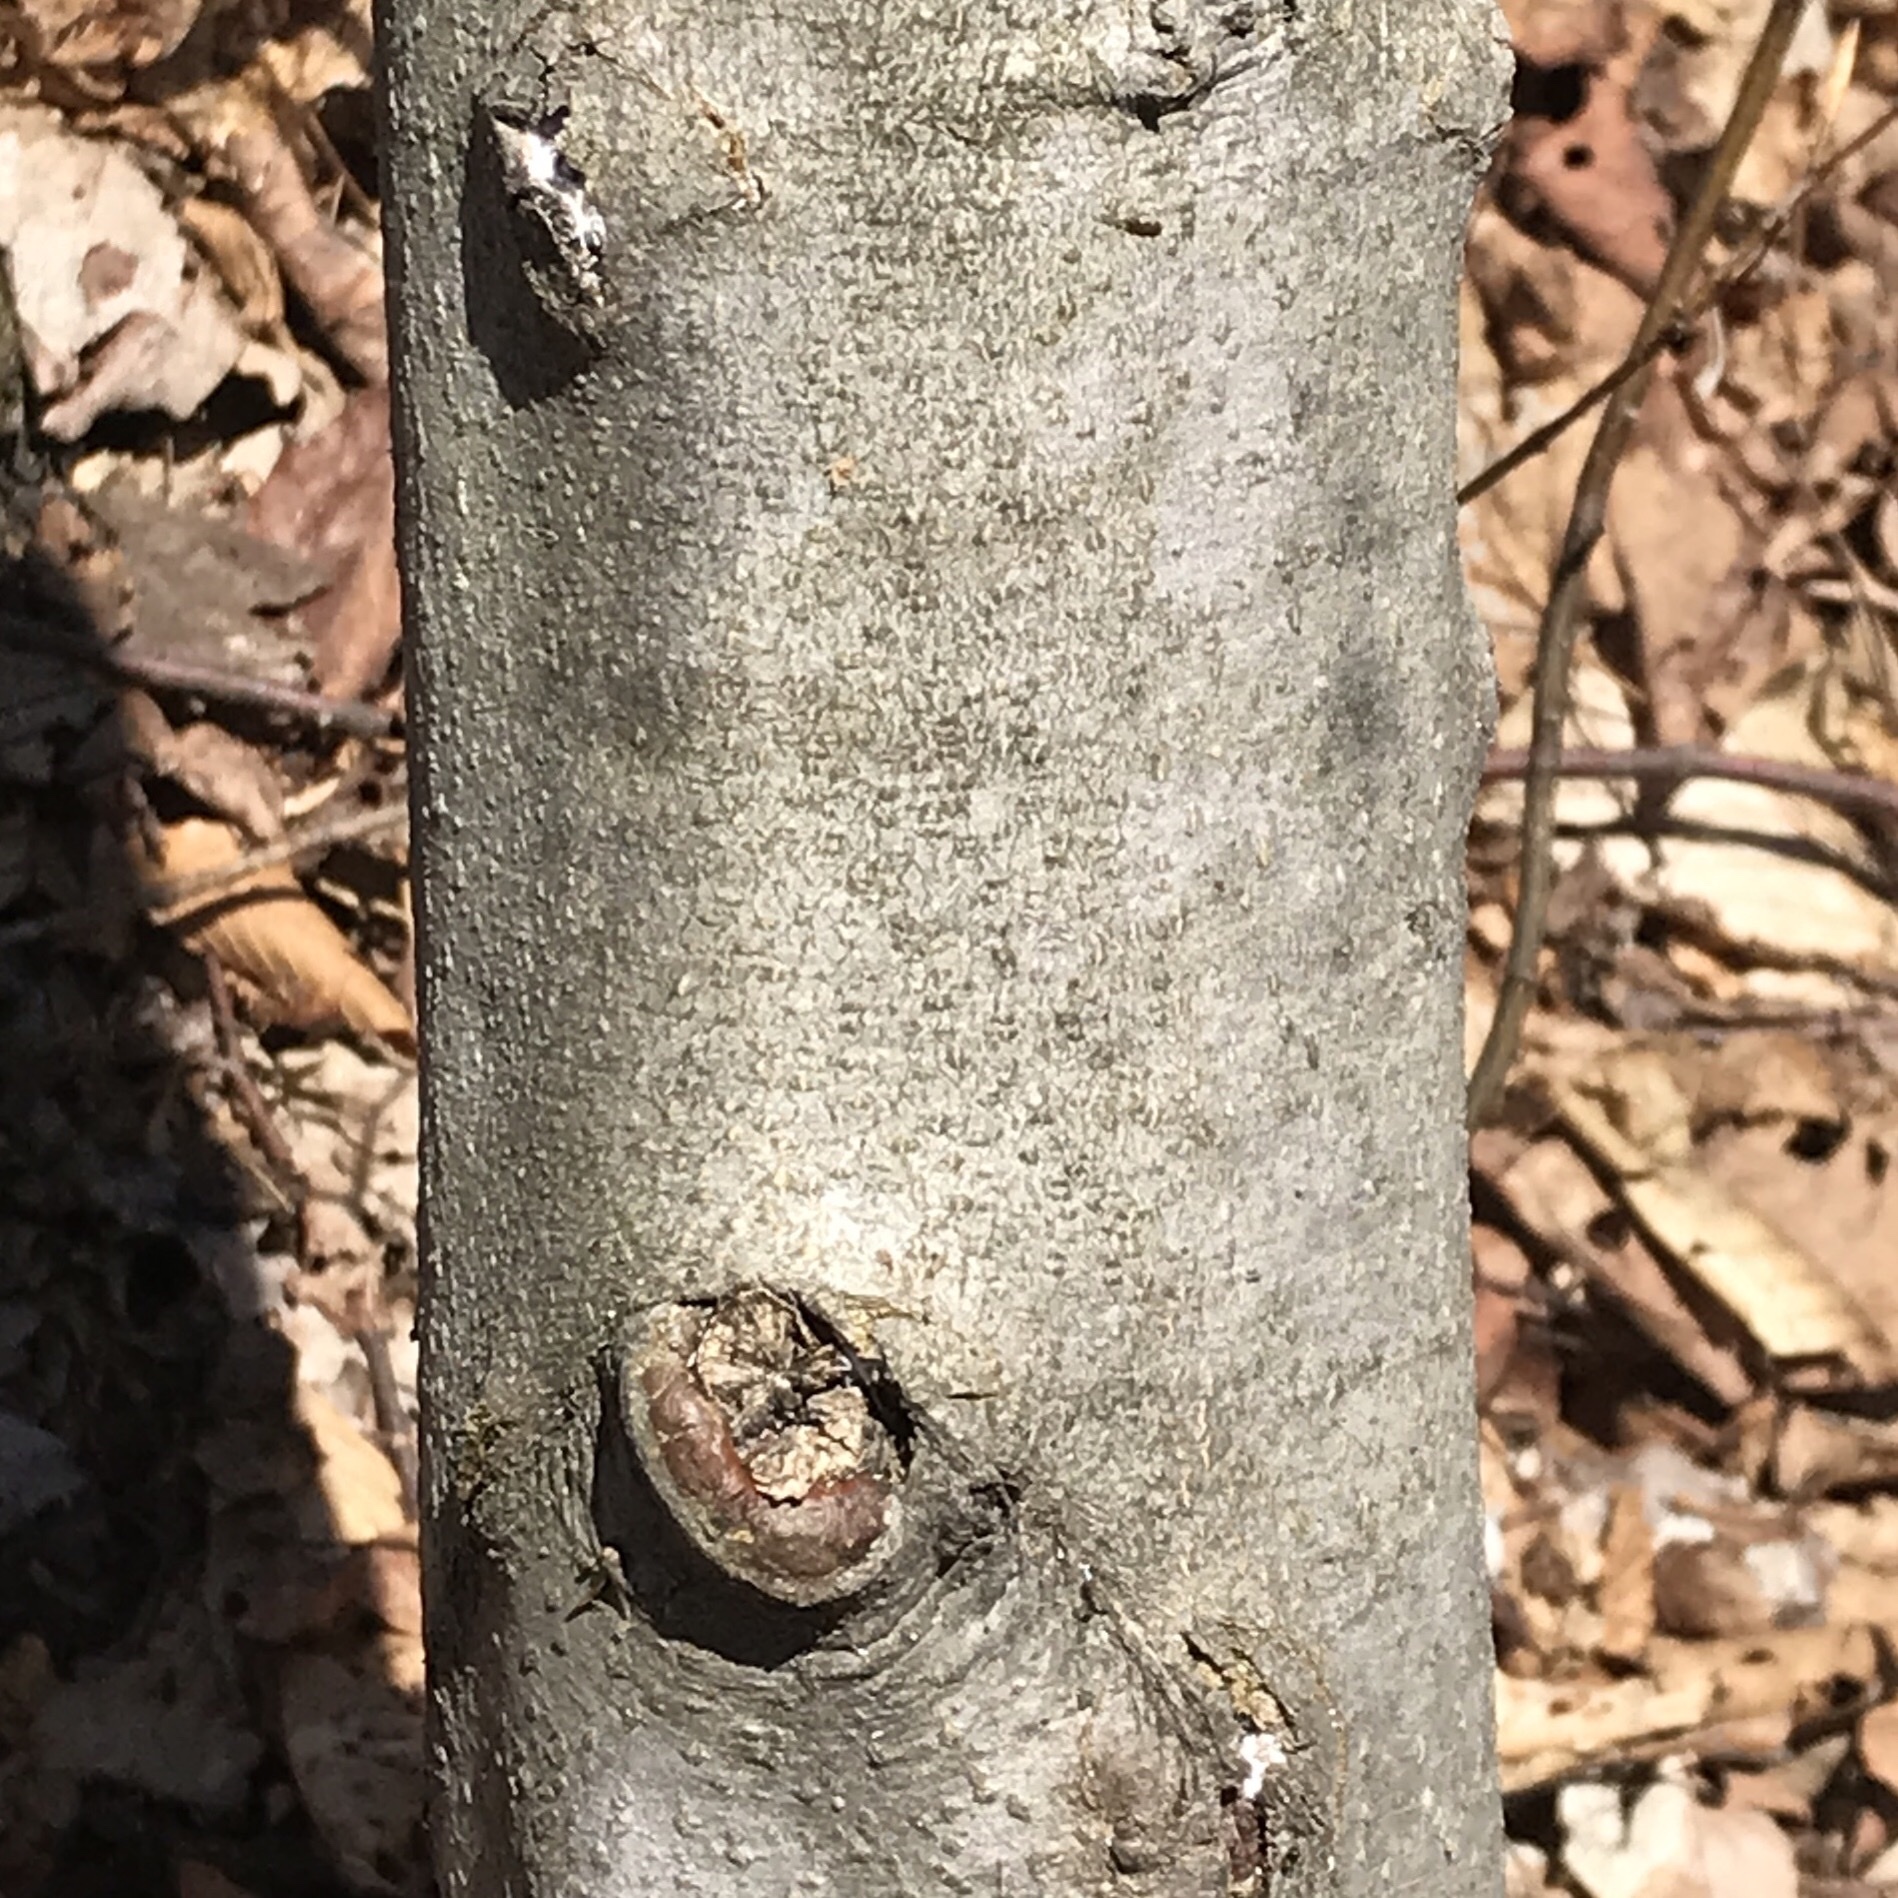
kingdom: Animalia
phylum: Arthropoda
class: Insecta
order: Hemiptera
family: Eriococcidae
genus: Cryptococcus
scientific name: Cryptococcus fagisuga
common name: Beech scale
